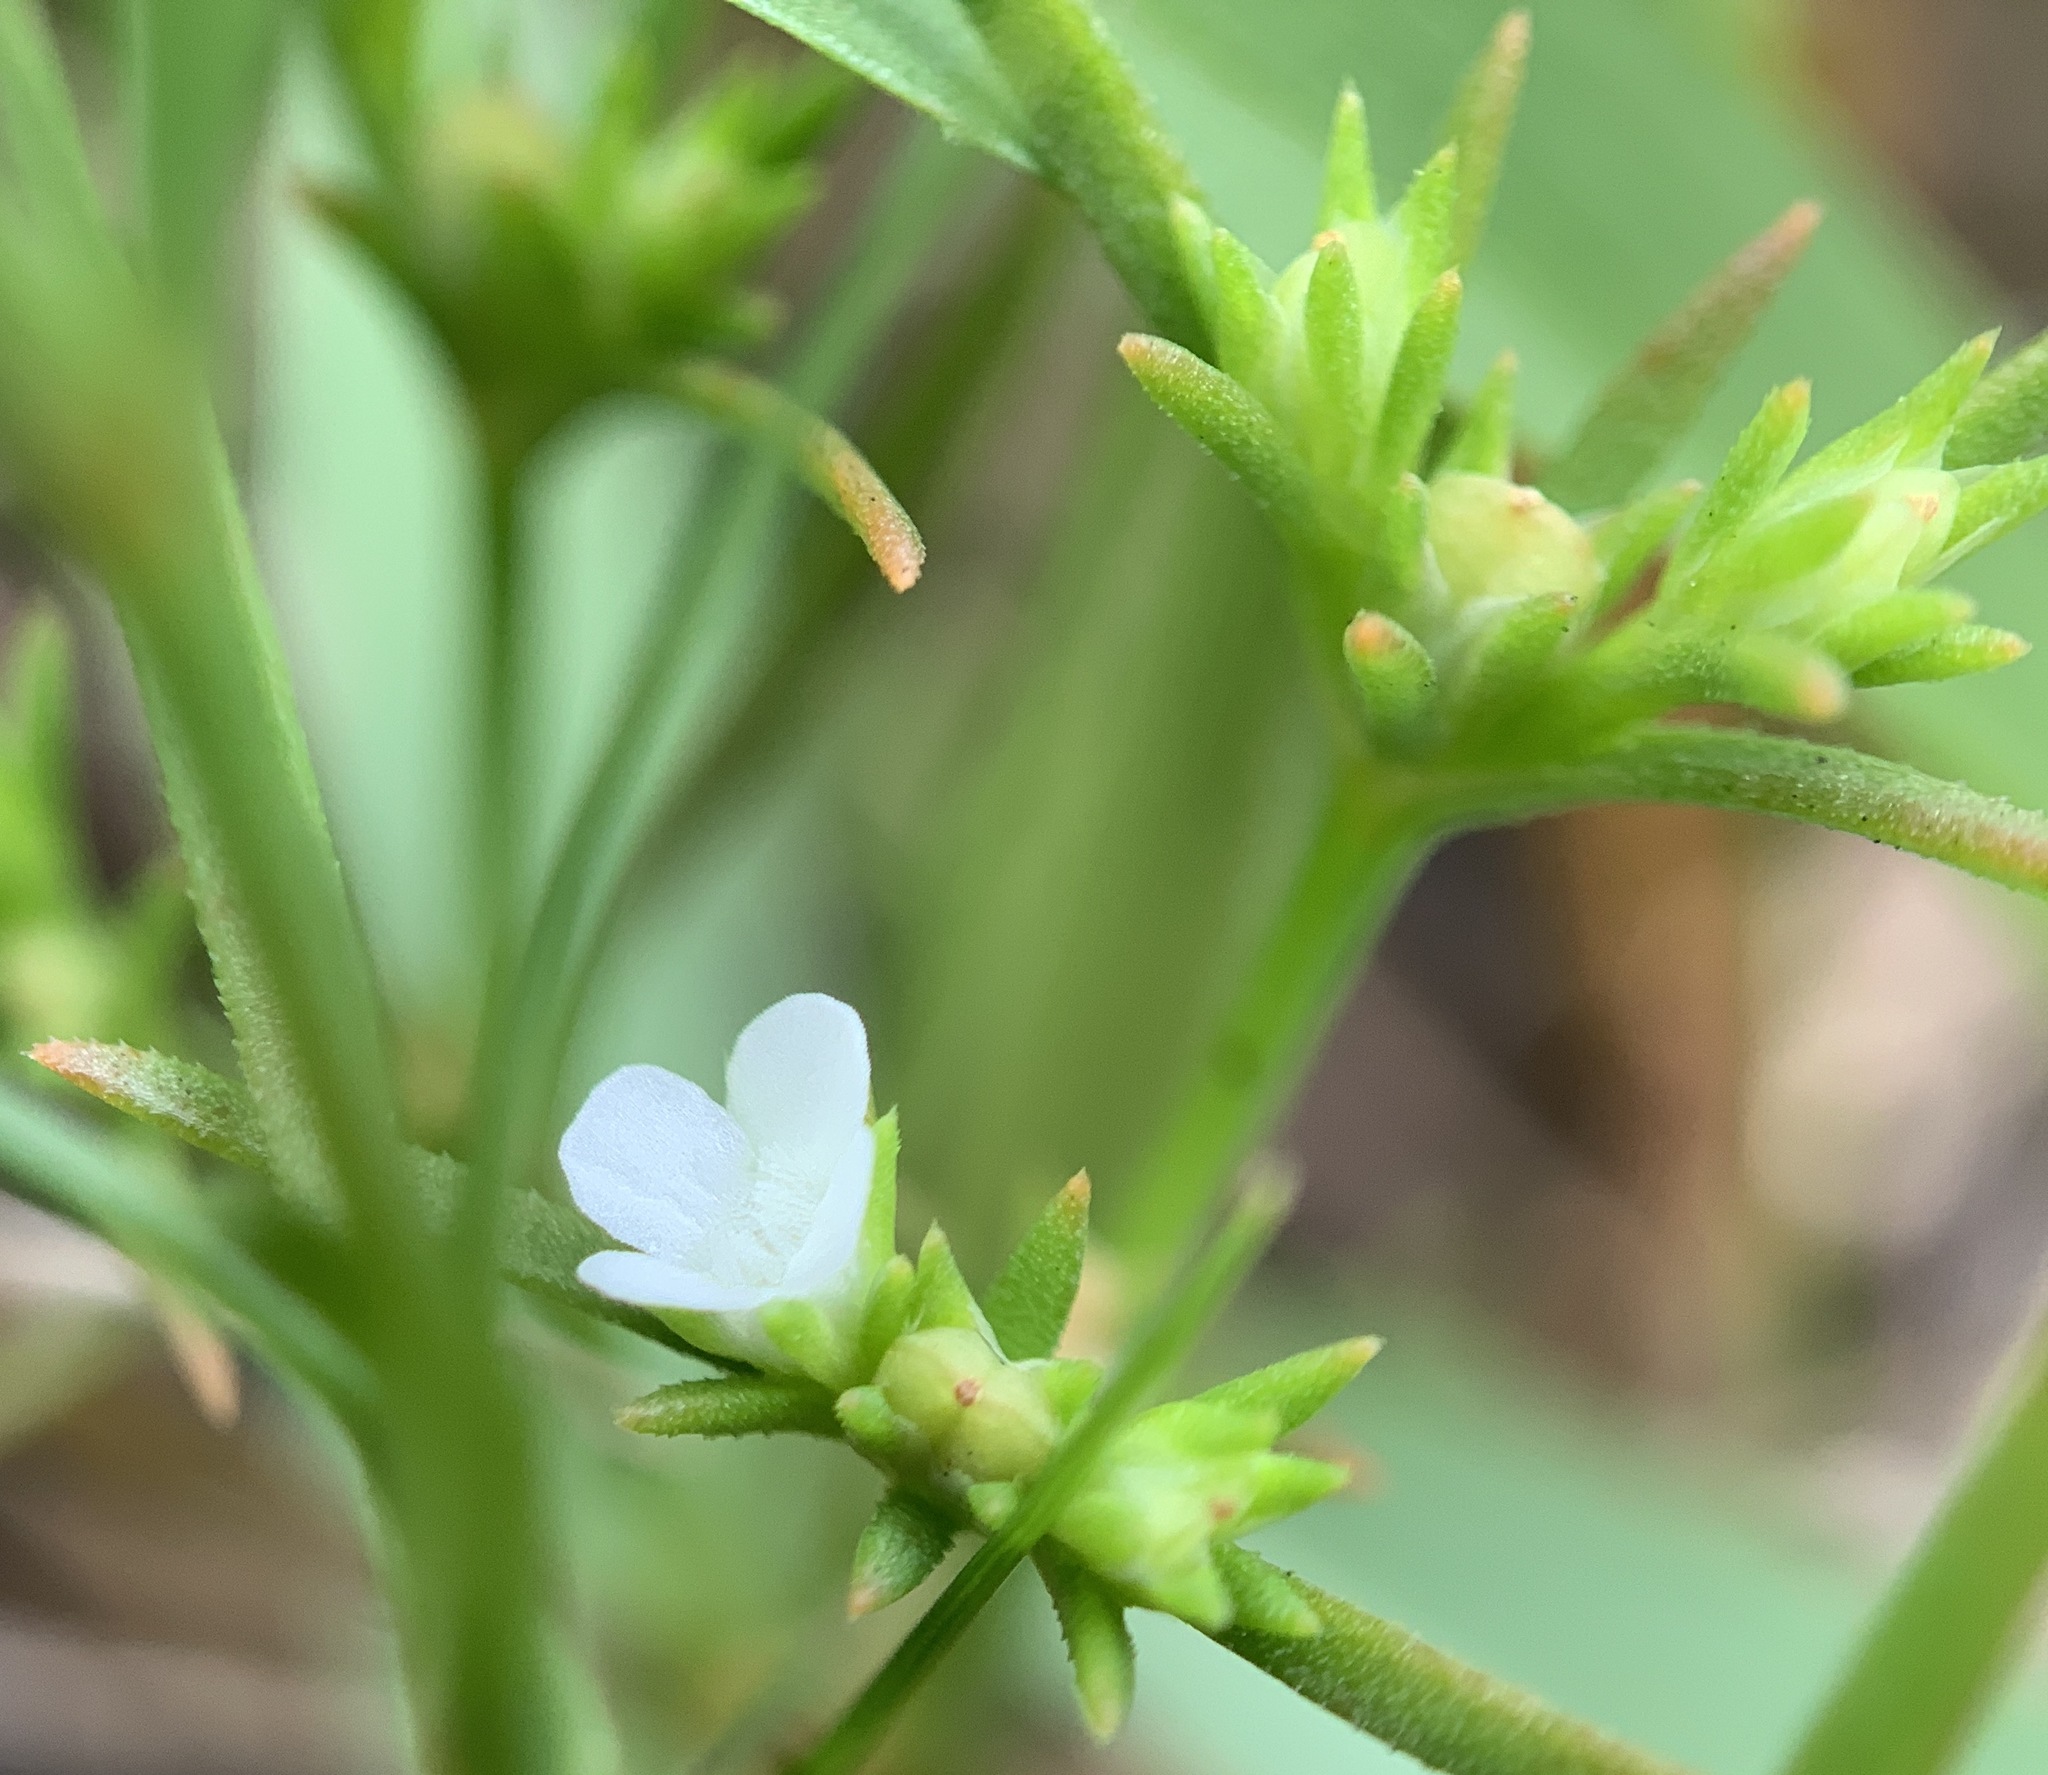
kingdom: Plantae
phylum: Tracheophyta
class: Magnoliopsida
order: Lamiales
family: Tetrachondraceae
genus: Polypremum
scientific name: Polypremum procumbens
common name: Juniper-leaf
